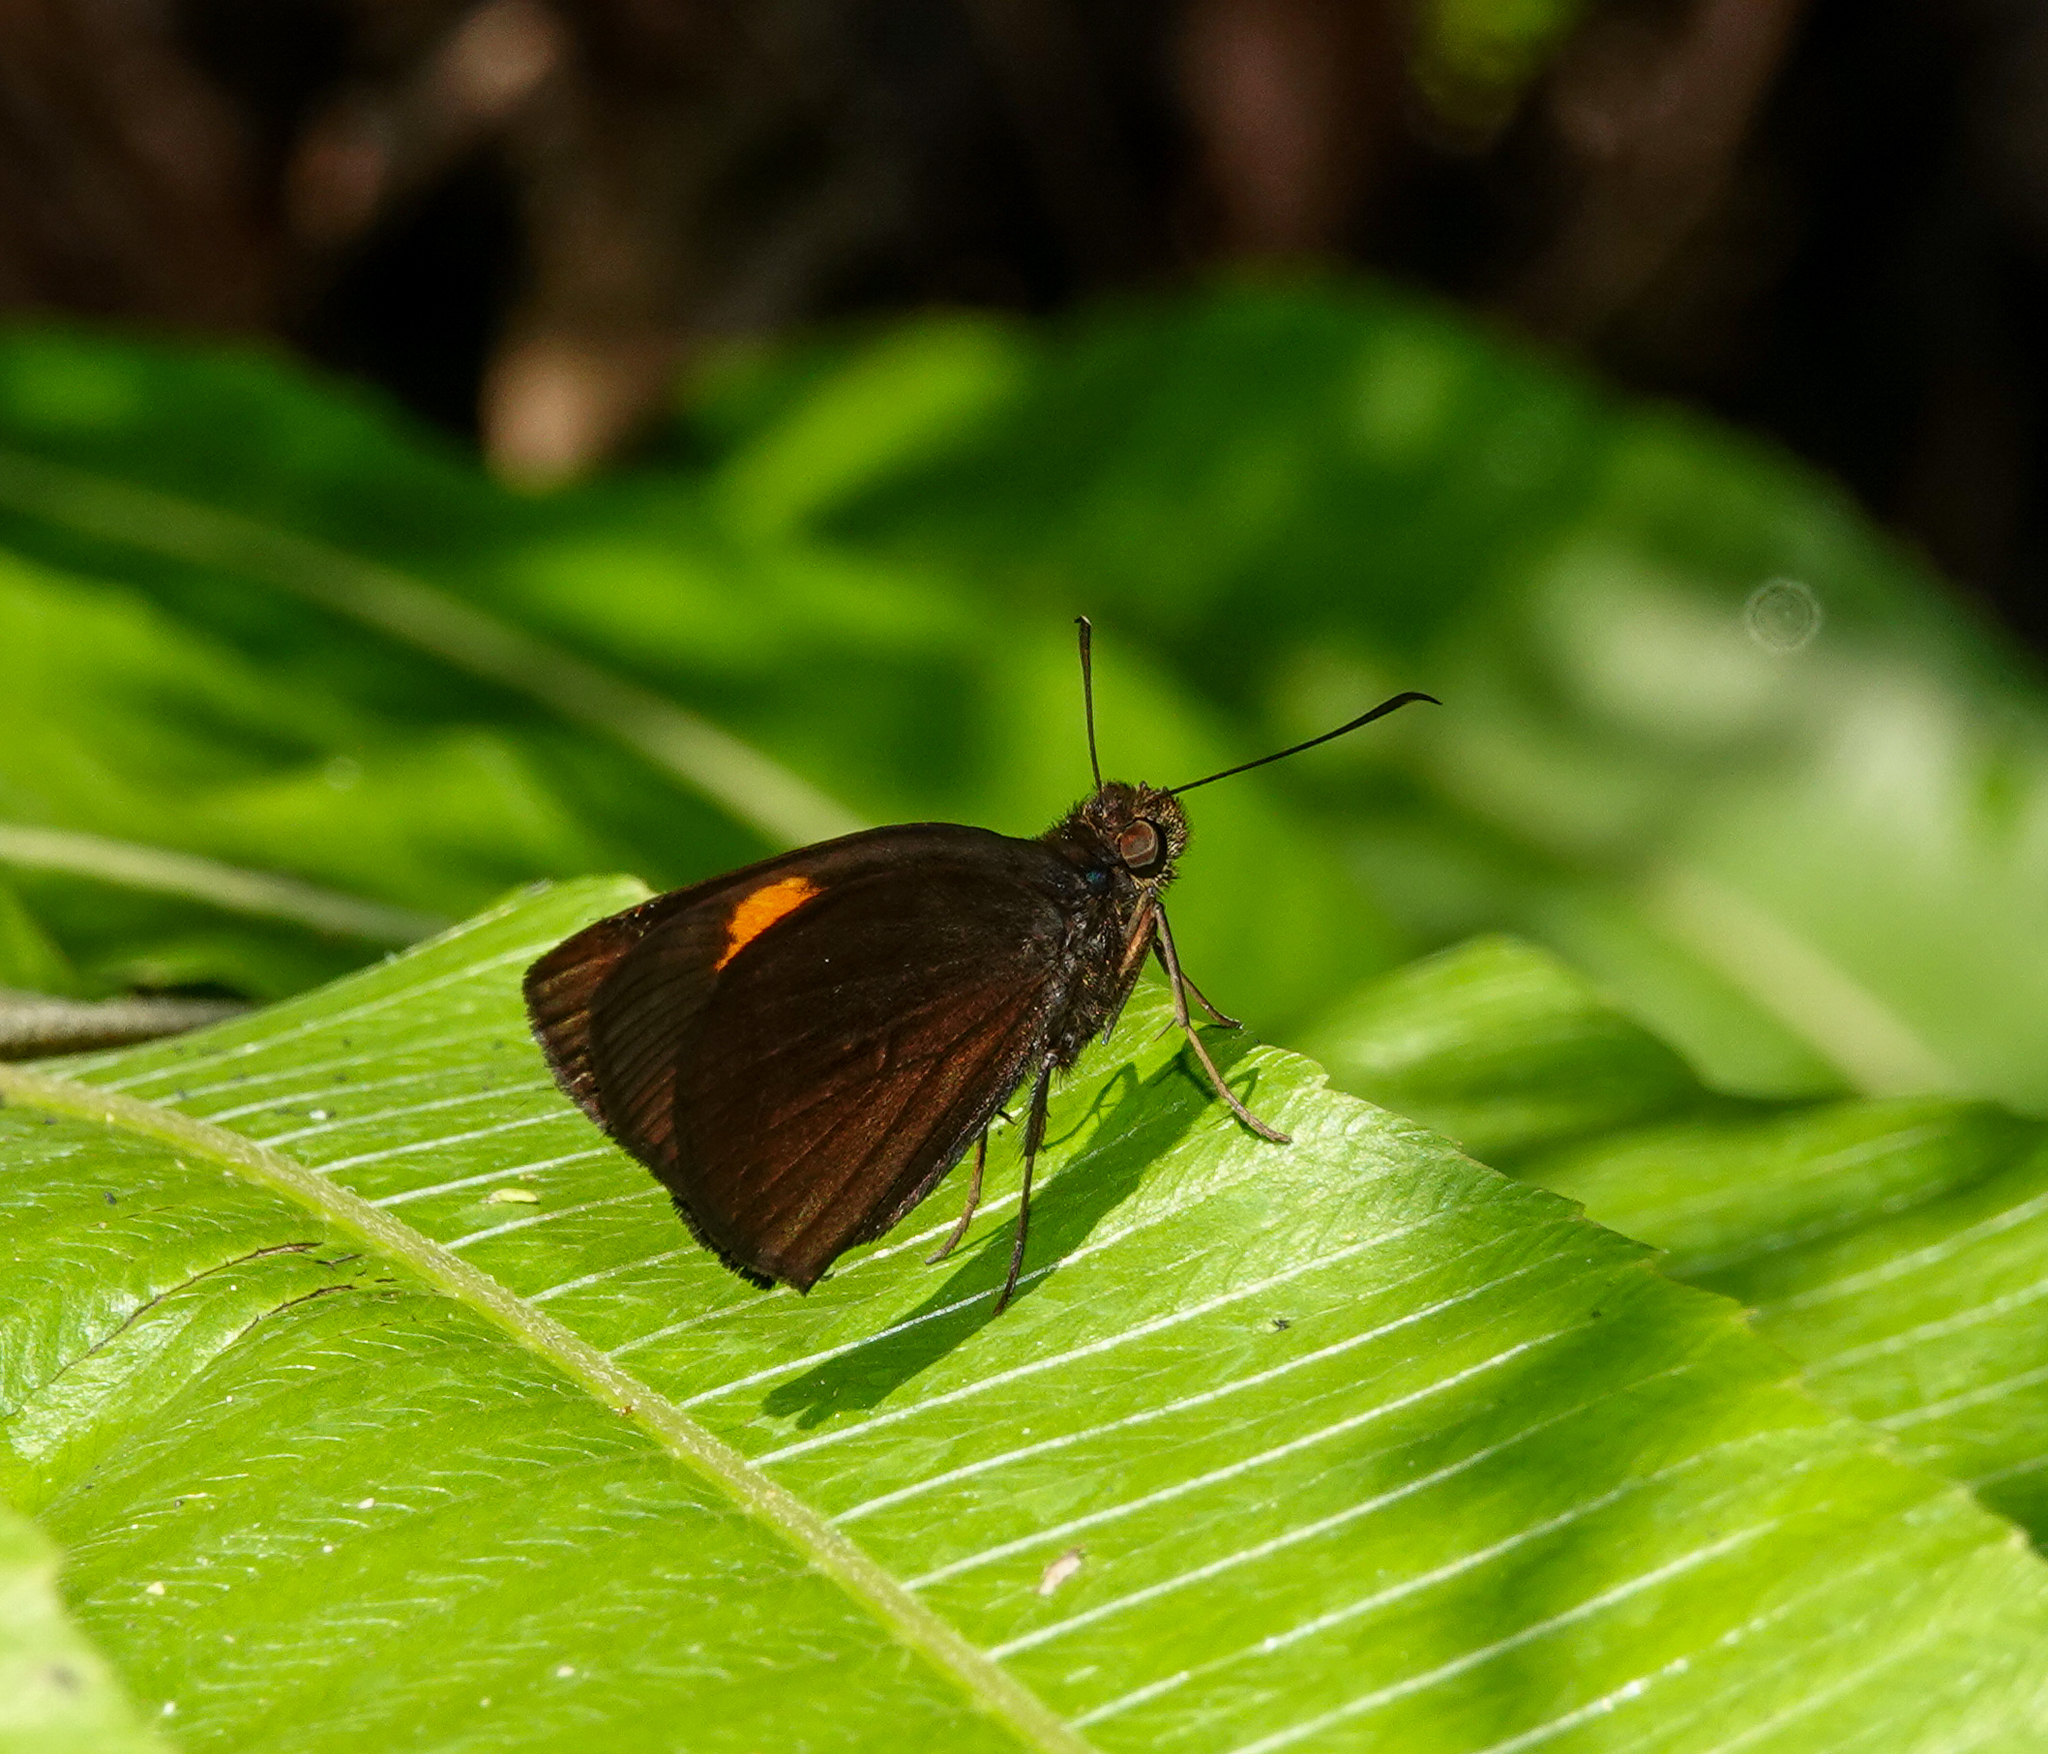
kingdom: Animalia
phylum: Arthropoda
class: Insecta
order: Lepidoptera
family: Hesperiidae
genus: Koruthaialos
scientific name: Koruthaialos sindu
